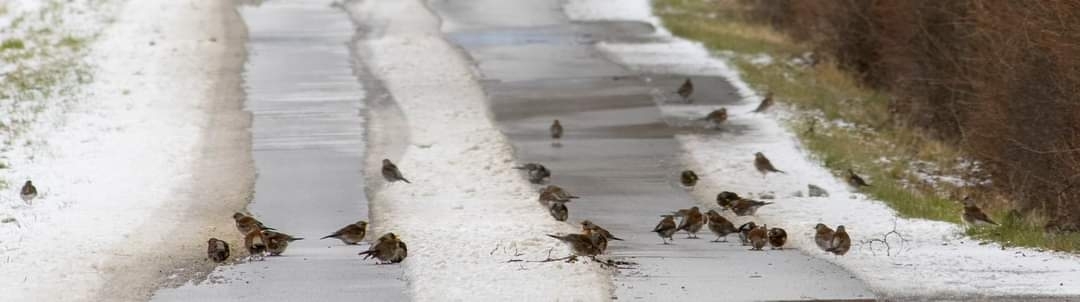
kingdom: Animalia
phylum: Chordata
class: Aves
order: Passeriformes
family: Turdidae
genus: Turdus
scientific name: Turdus pilaris
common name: Fieldfare
